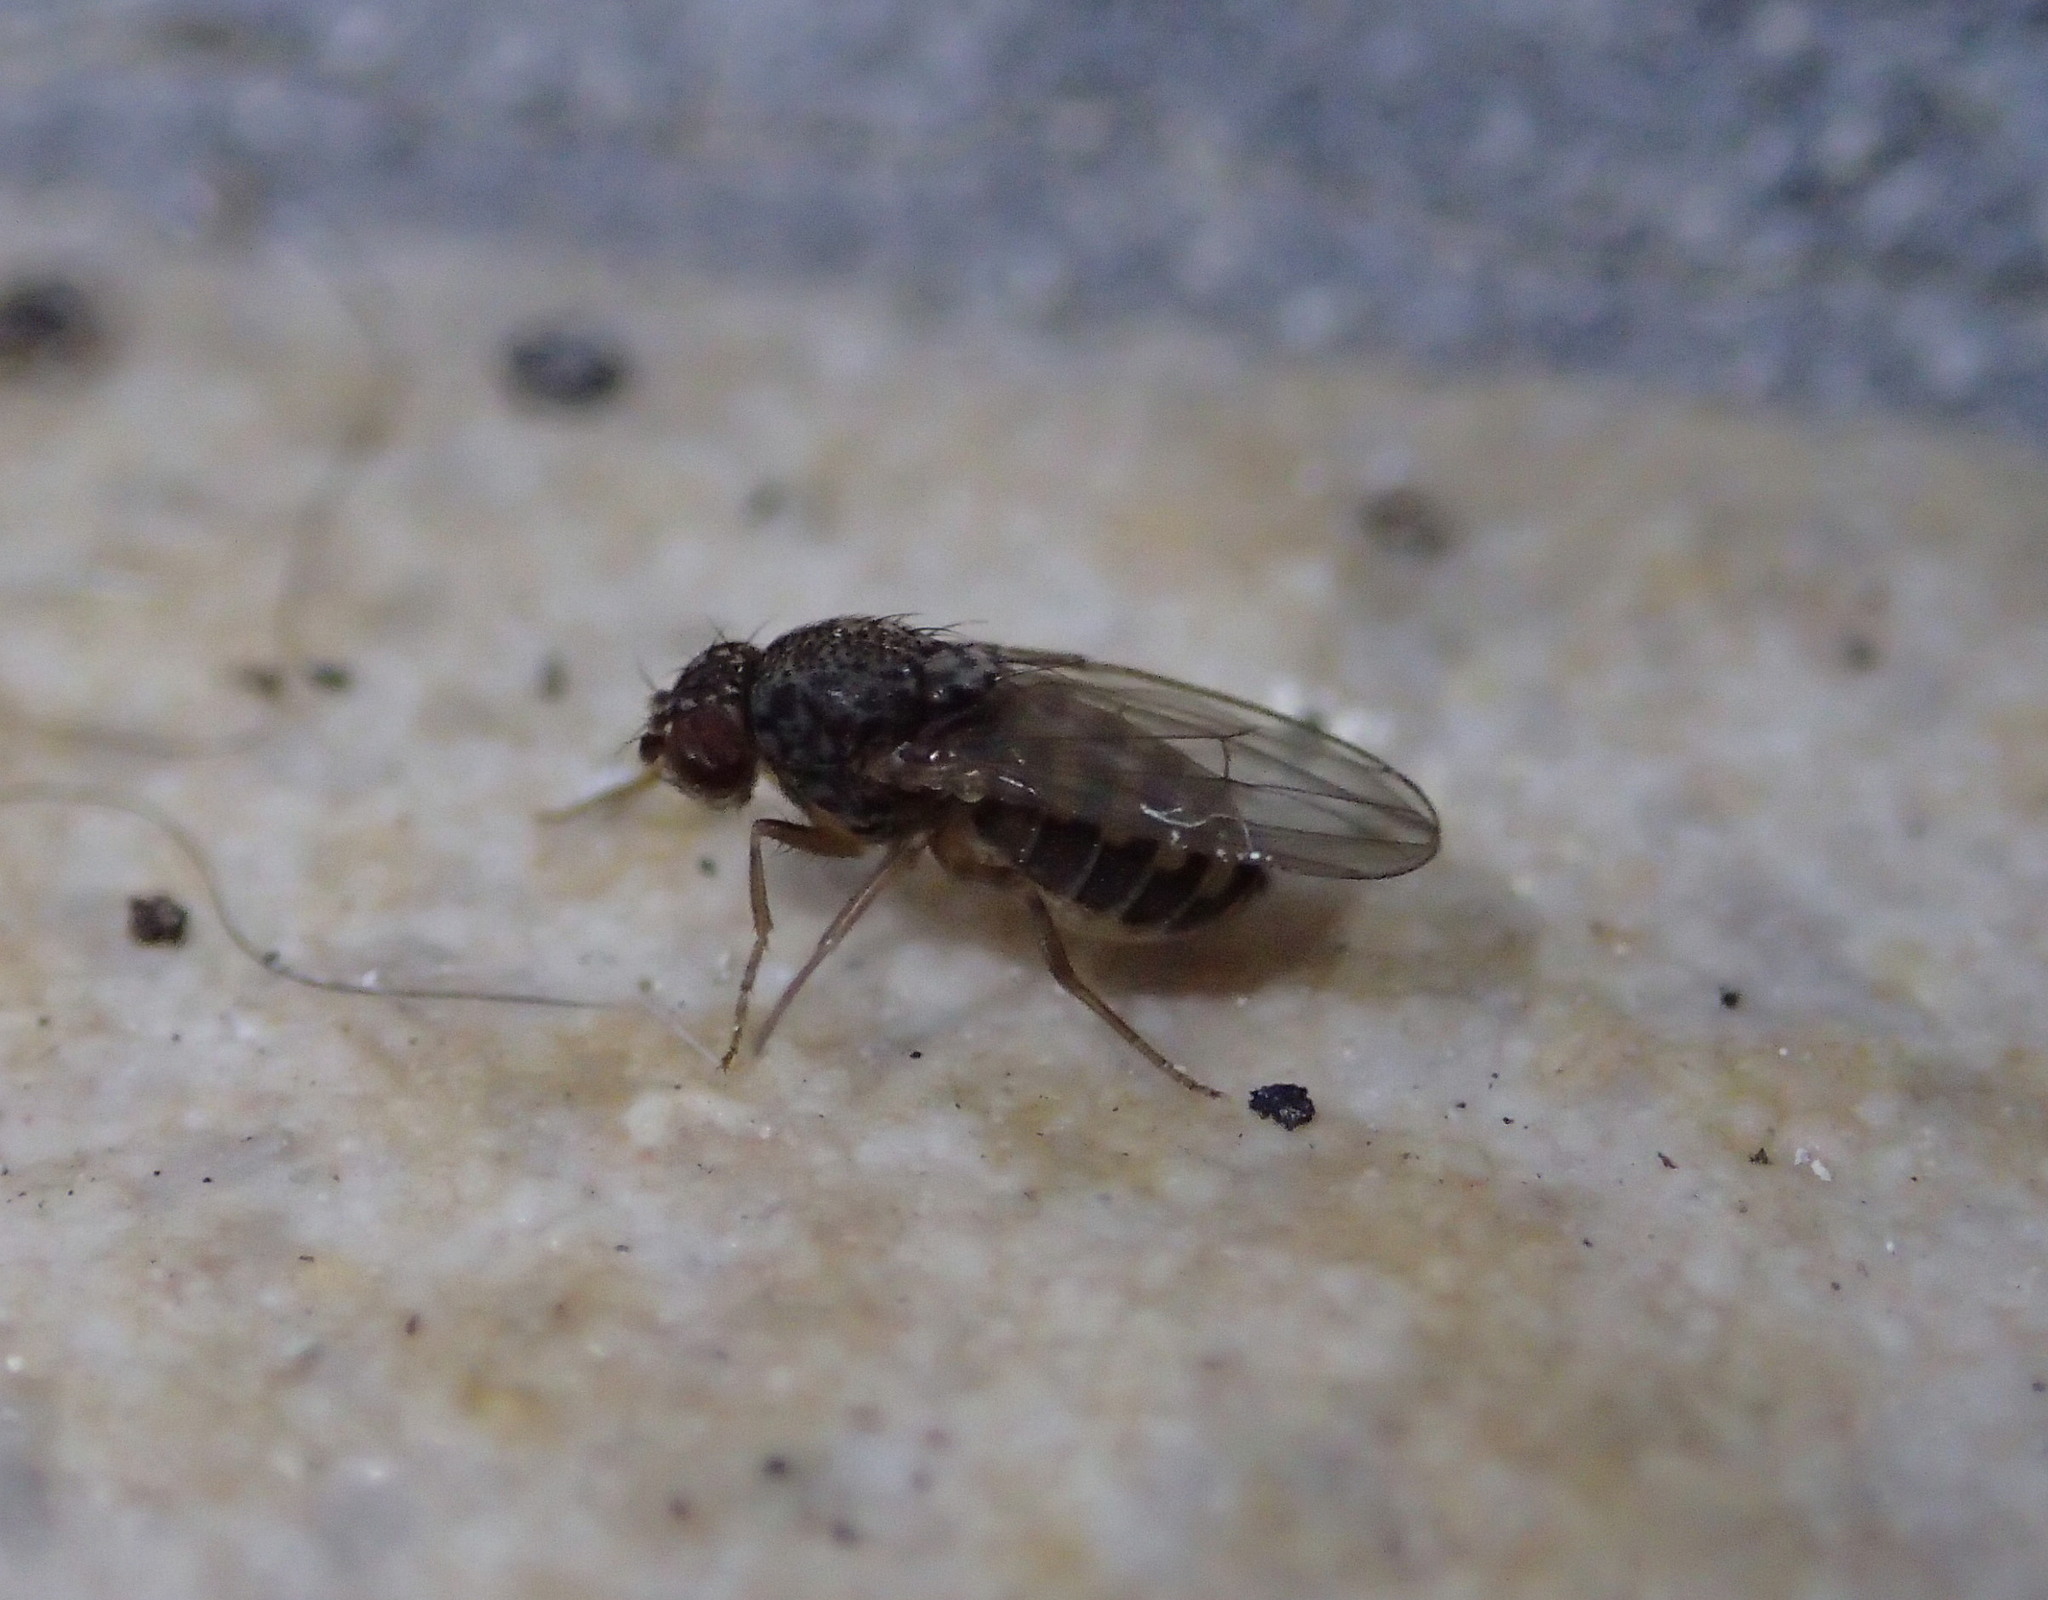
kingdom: Animalia
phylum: Arthropoda
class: Insecta
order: Diptera
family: Drosophilidae
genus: Drosophila
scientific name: Drosophila hydei
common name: Pomace fly
